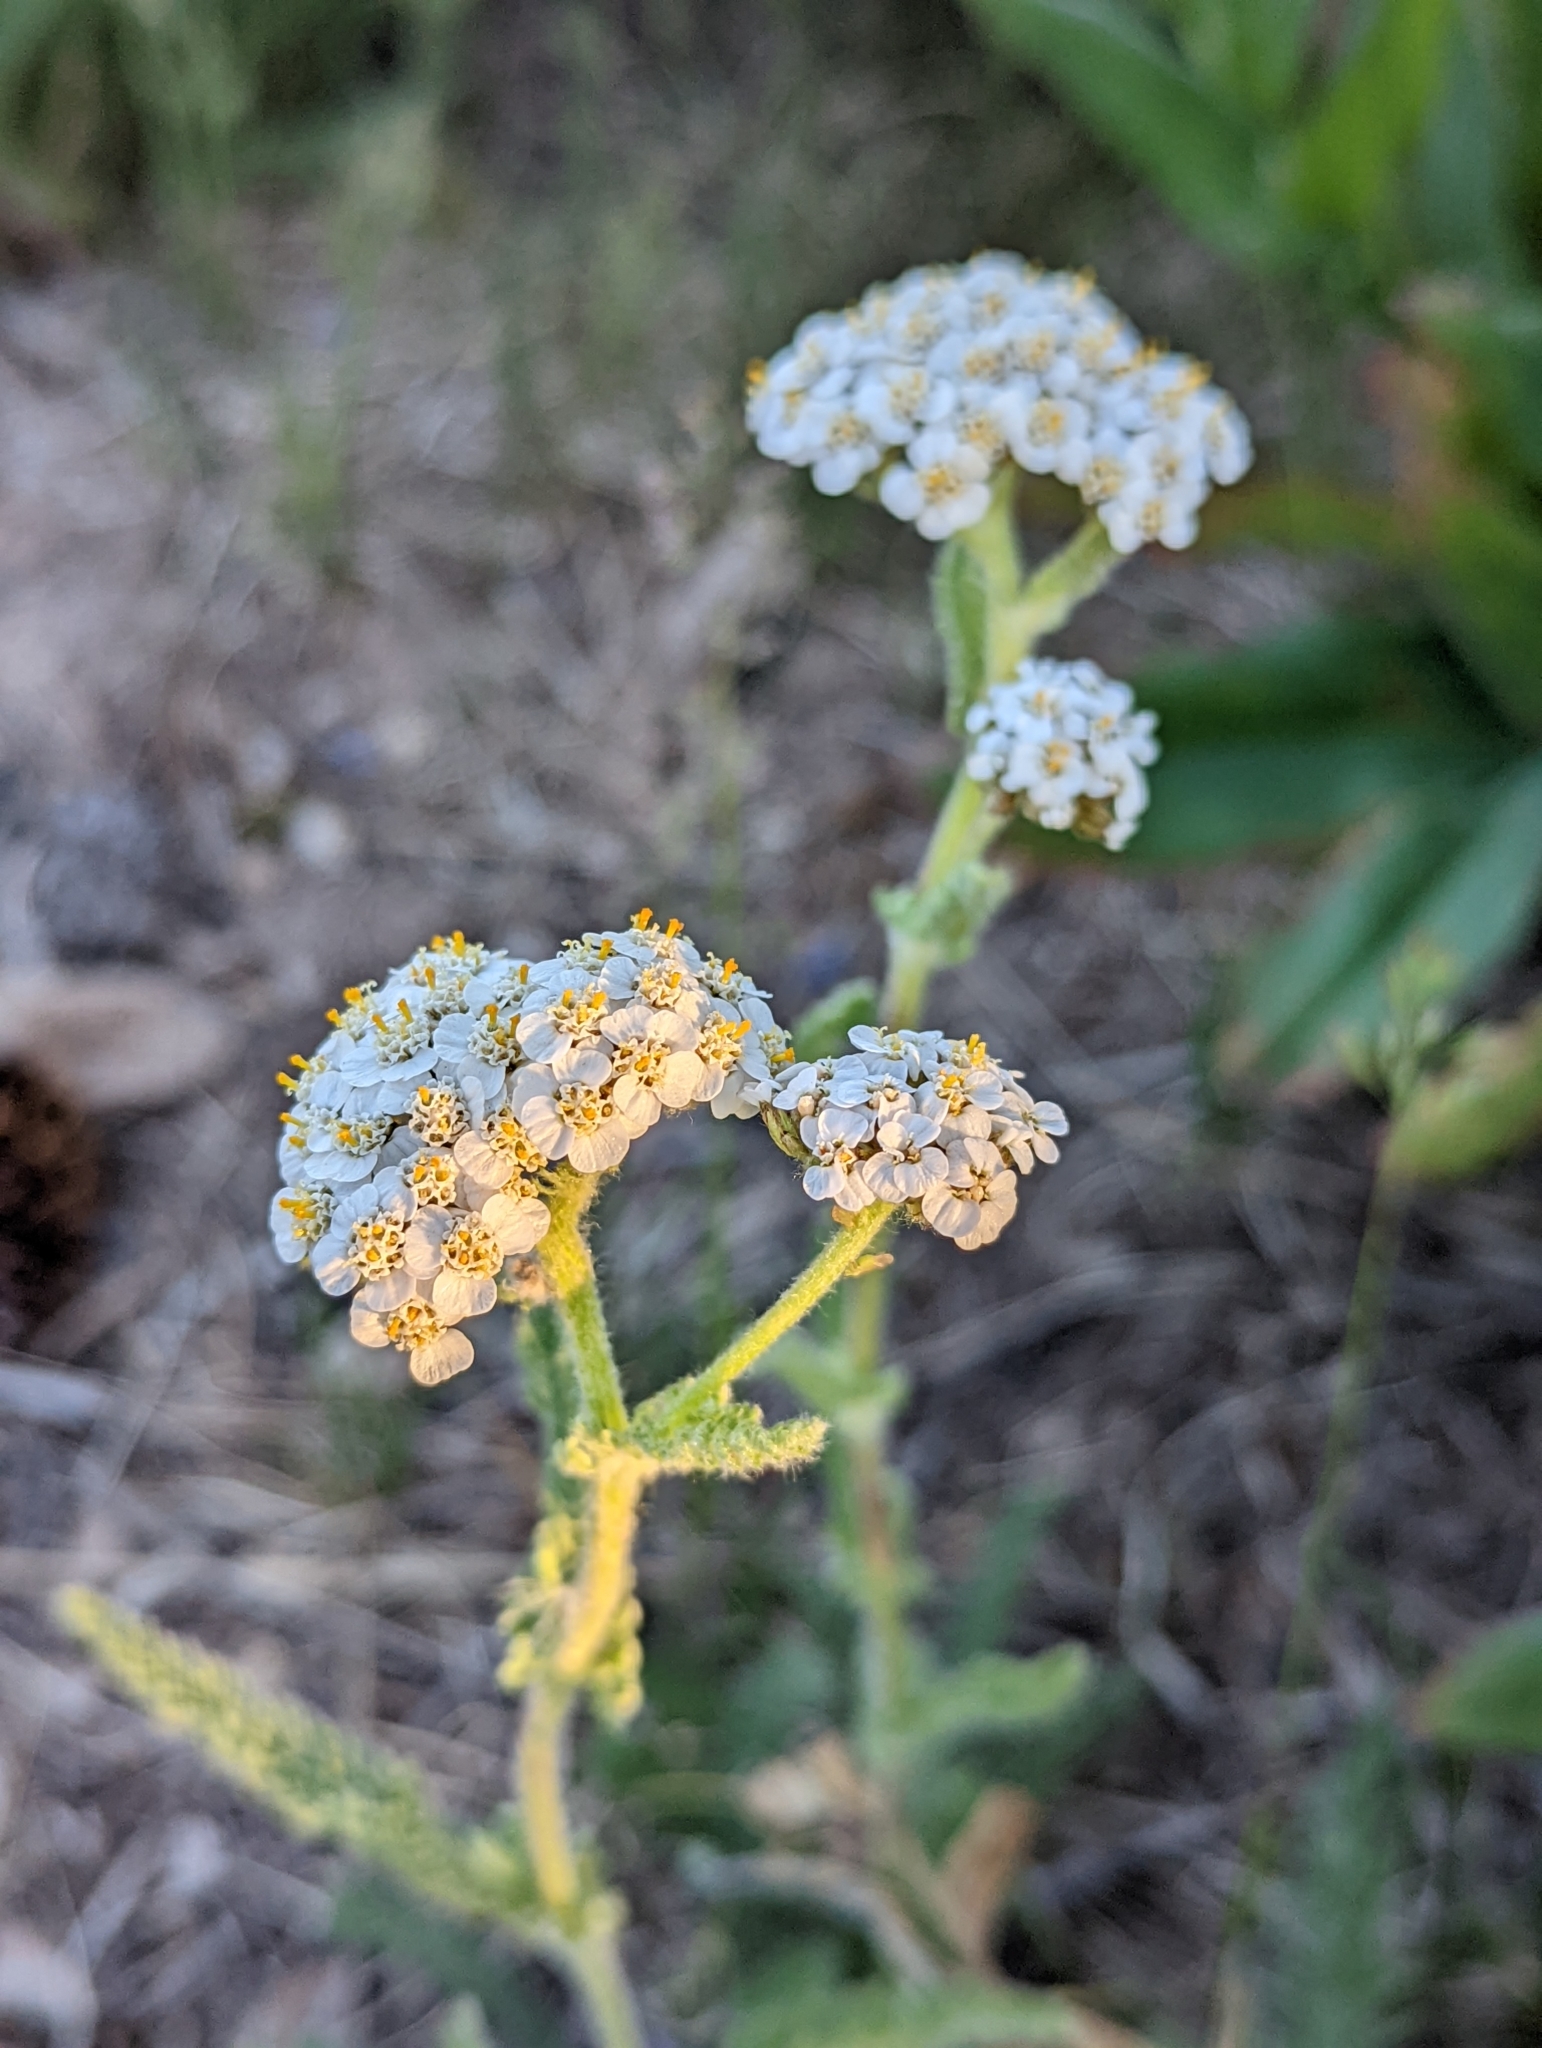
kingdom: Plantae
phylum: Tracheophyta
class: Magnoliopsida
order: Asterales
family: Asteraceae
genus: Achillea
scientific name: Achillea millefolium
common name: Yarrow
